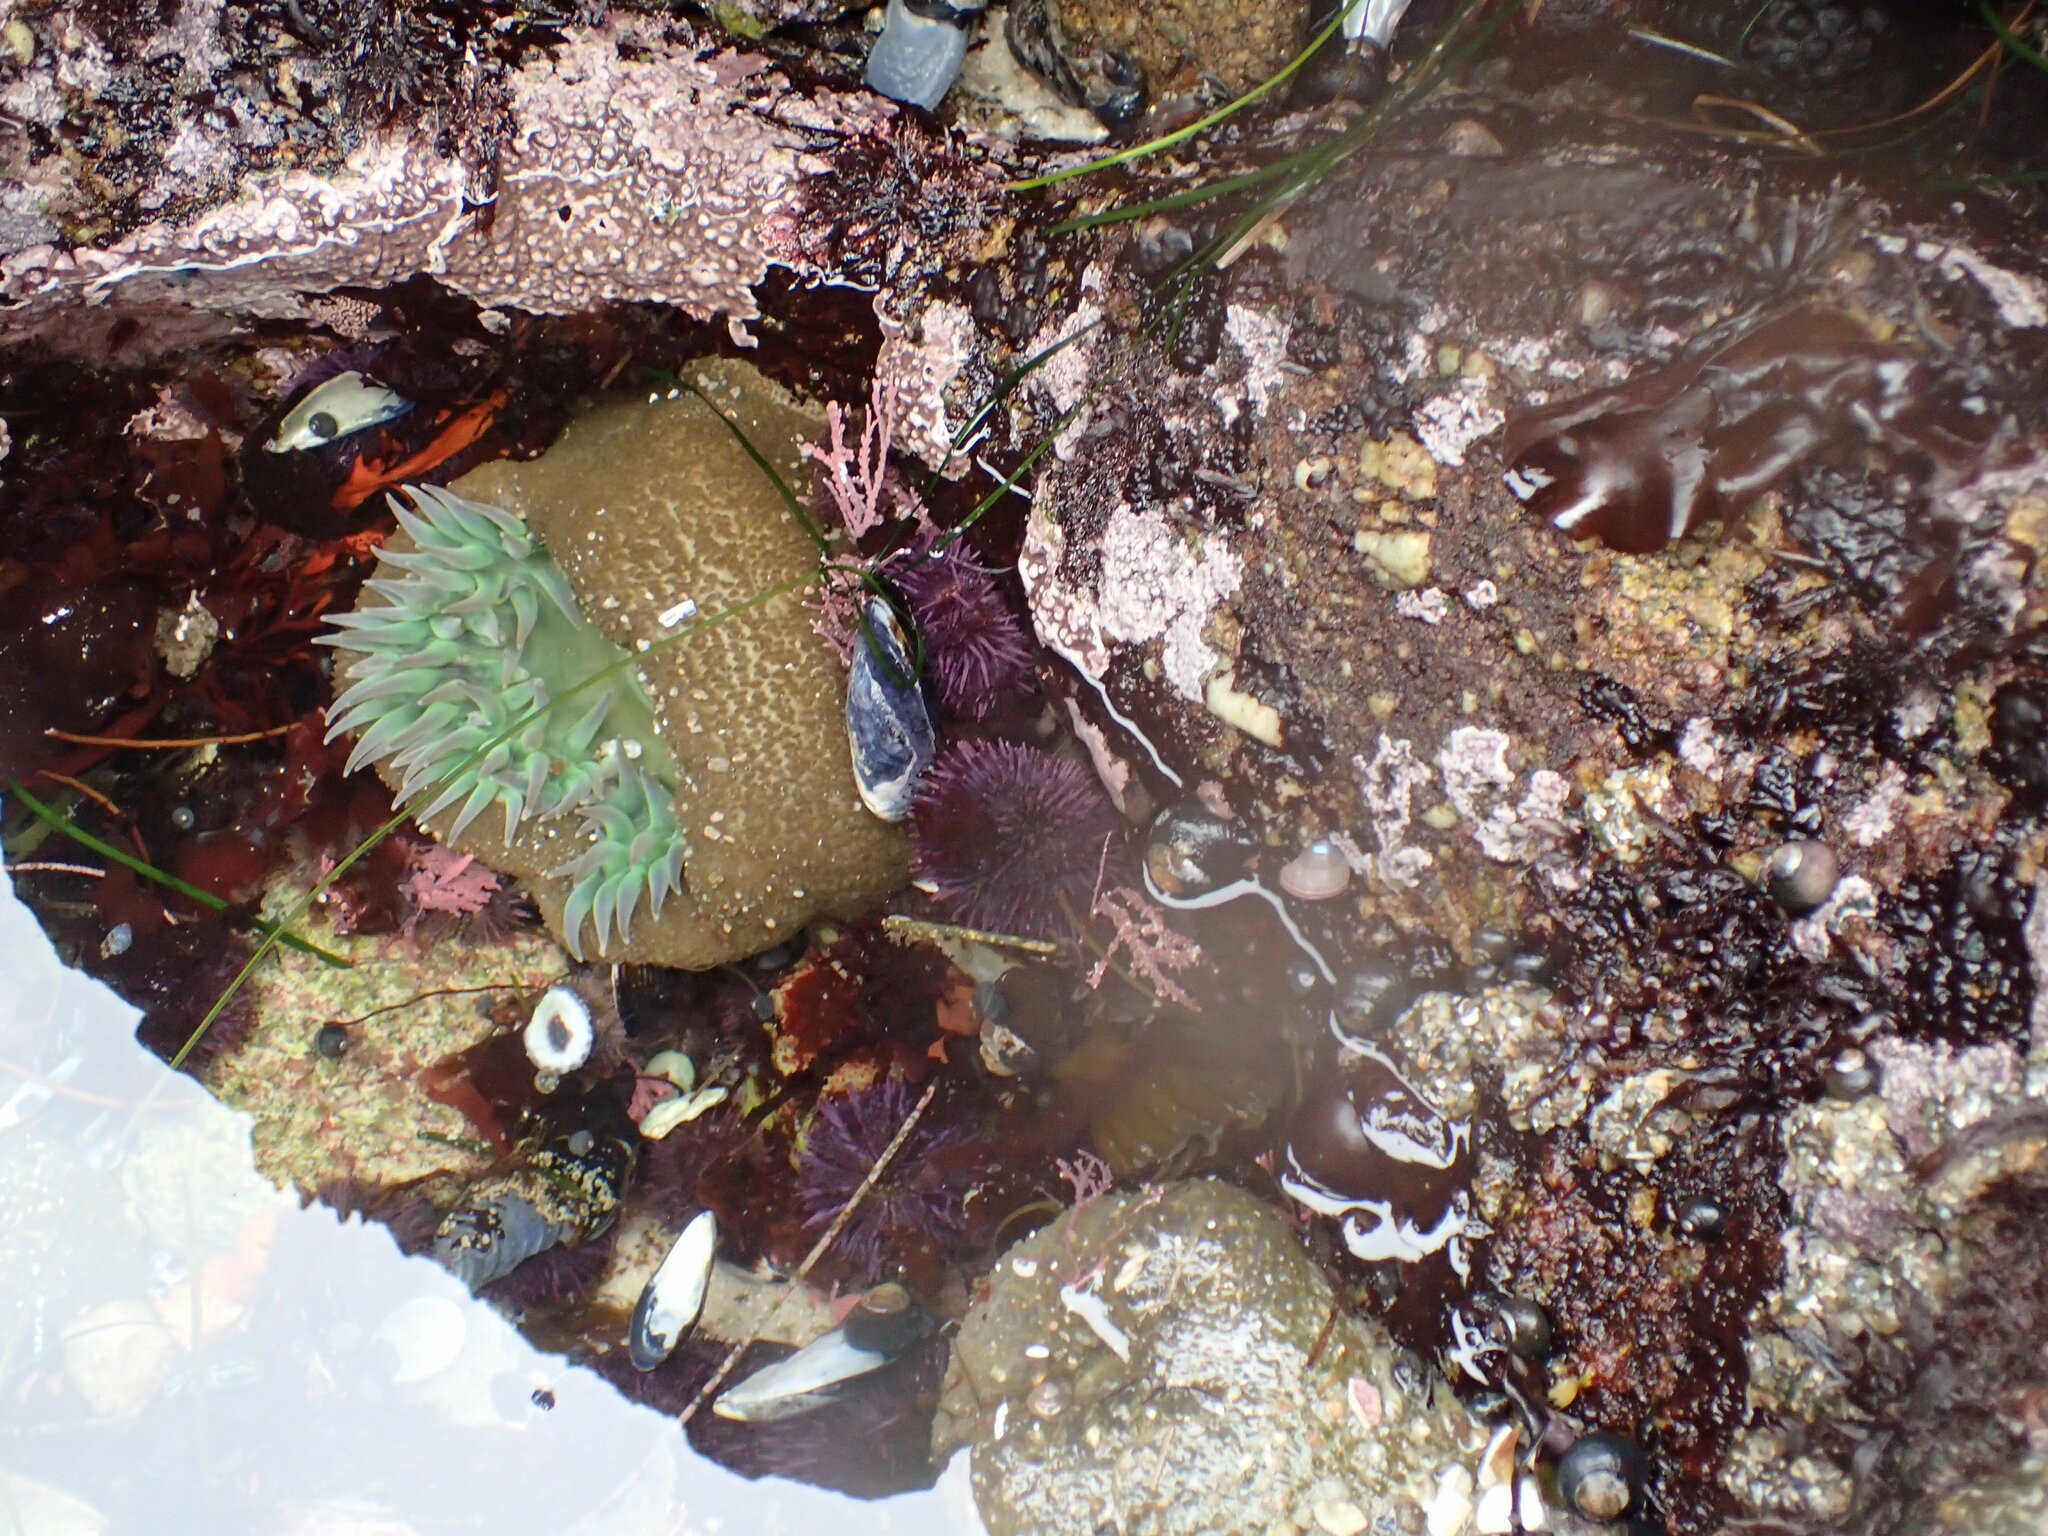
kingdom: Animalia
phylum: Echinodermata
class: Echinoidea
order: Camarodonta
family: Strongylocentrotidae
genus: Strongylocentrotus
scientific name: Strongylocentrotus purpuratus
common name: Purple sea urchin
